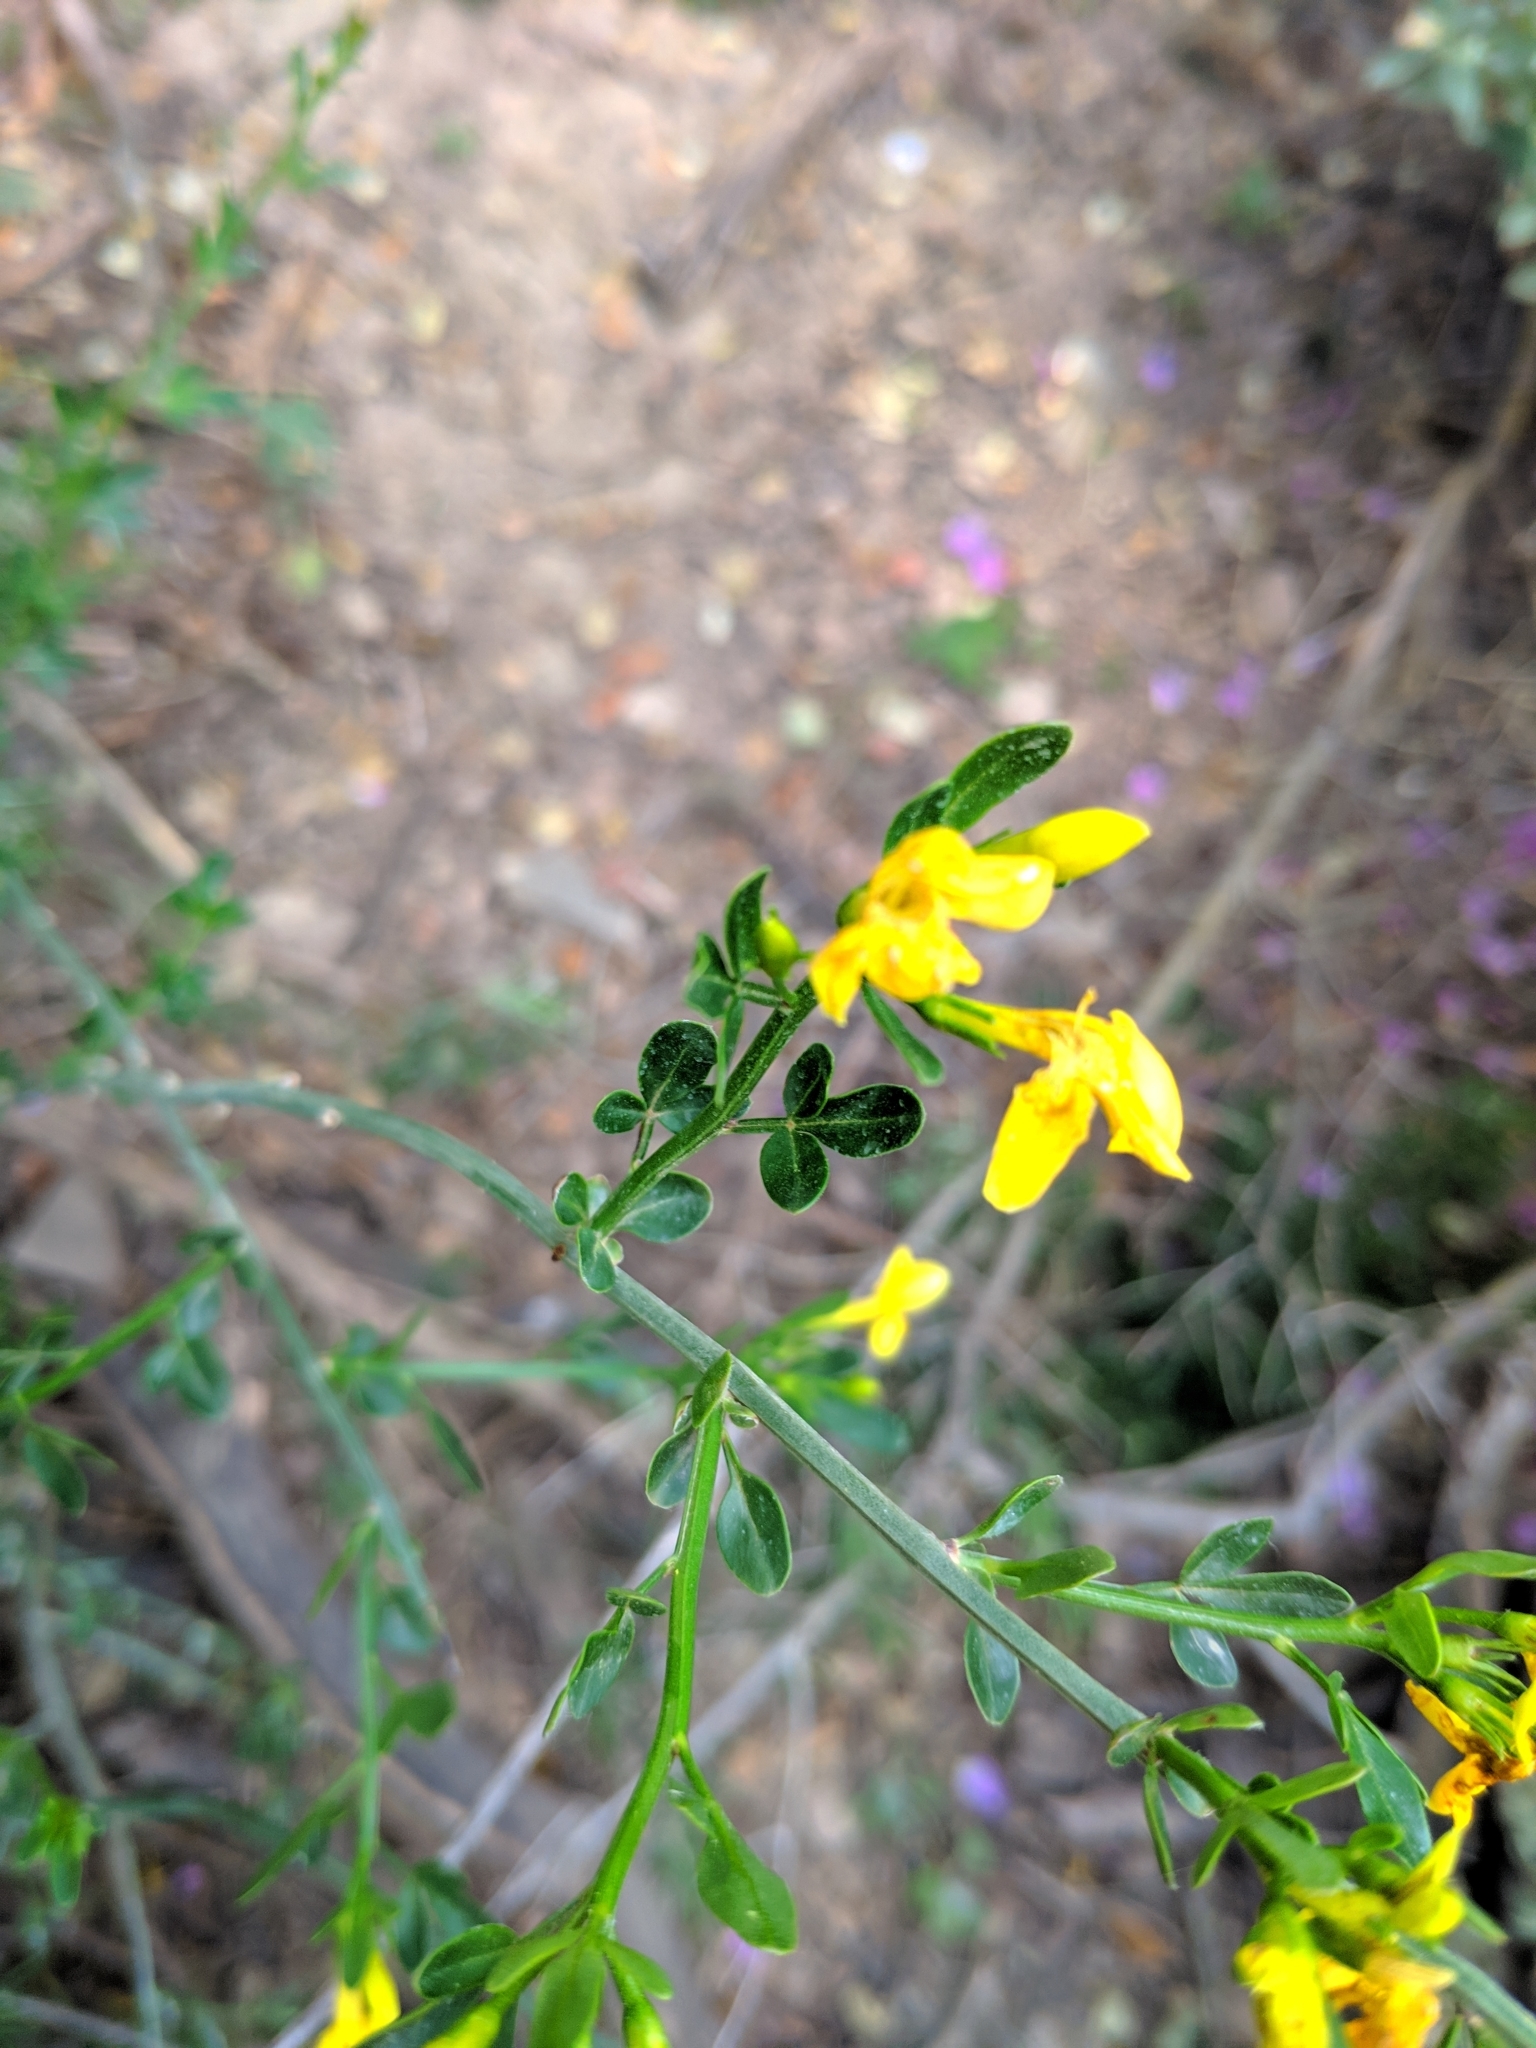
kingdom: Plantae
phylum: Tracheophyta
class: Magnoliopsida
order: Lamiales
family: Oleaceae
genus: Chrysojasminum
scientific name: Chrysojasminum fruticans
